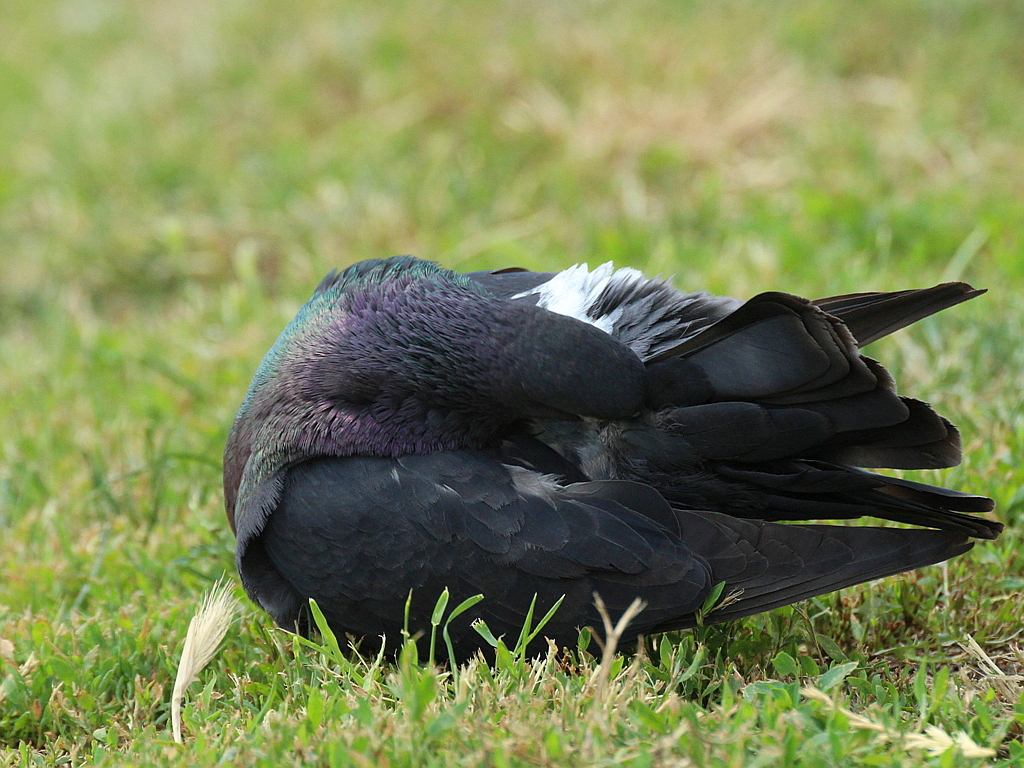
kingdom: Animalia
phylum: Chordata
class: Aves
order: Columbiformes
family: Columbidae
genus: Columba
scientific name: Columba livia
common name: Rock pigeon
